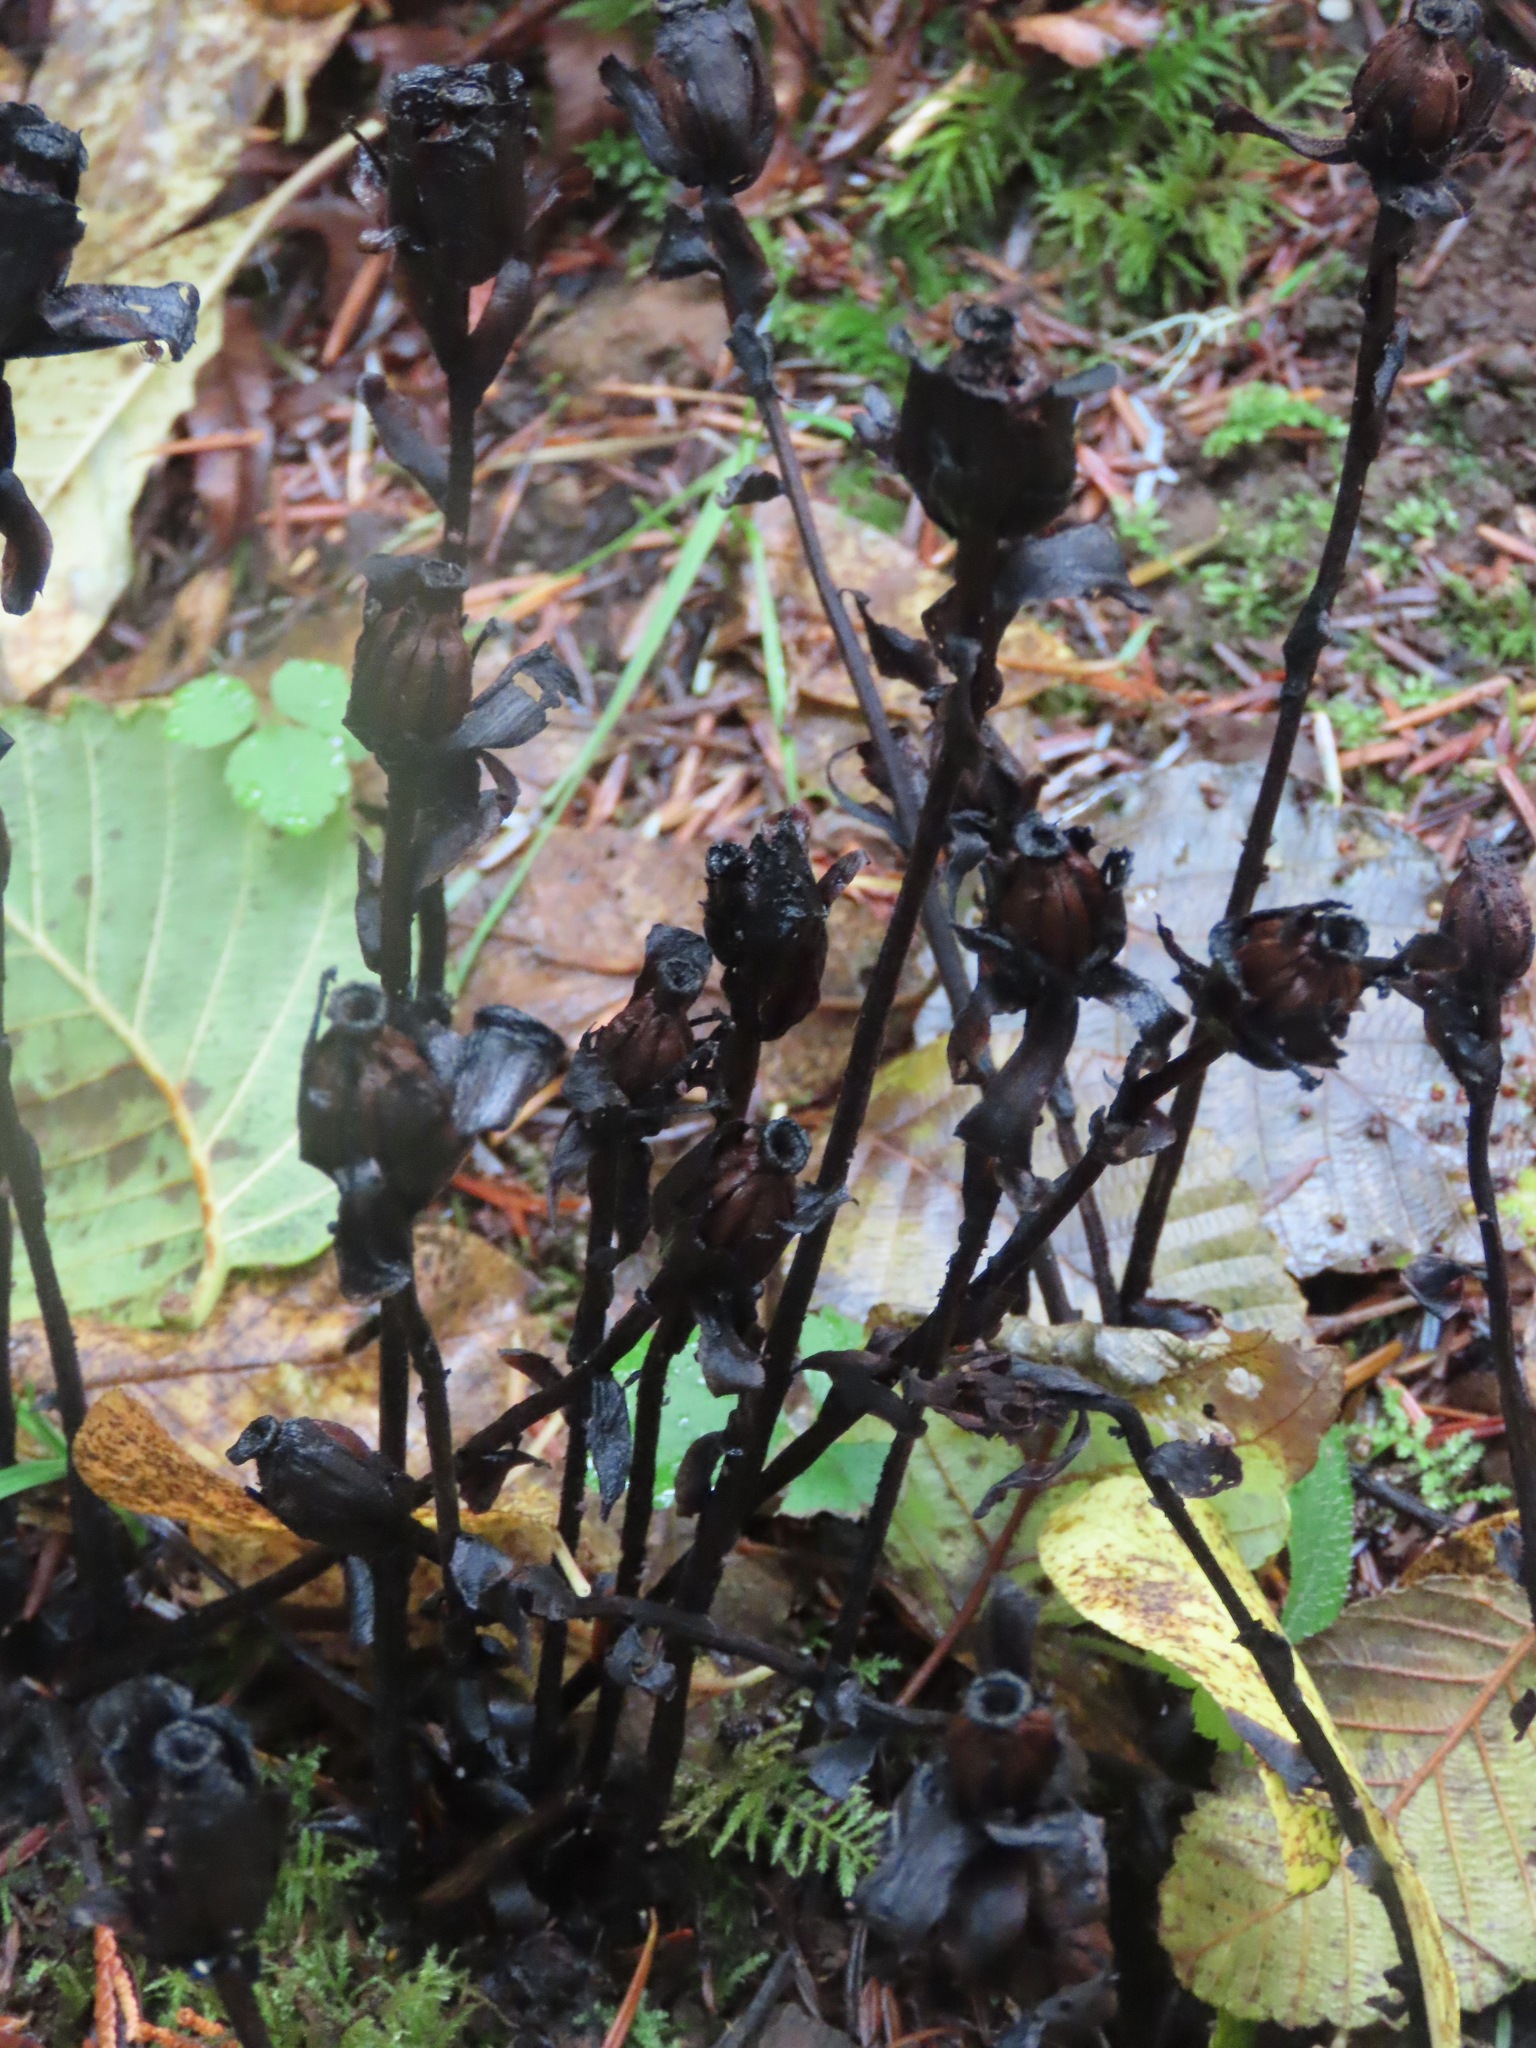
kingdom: Plantae
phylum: Tracheophyta
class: Magnoliopsida
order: Ericales
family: Ericaceae
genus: Monotropa
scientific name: Monotropa uniflora
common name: Convulsion root
